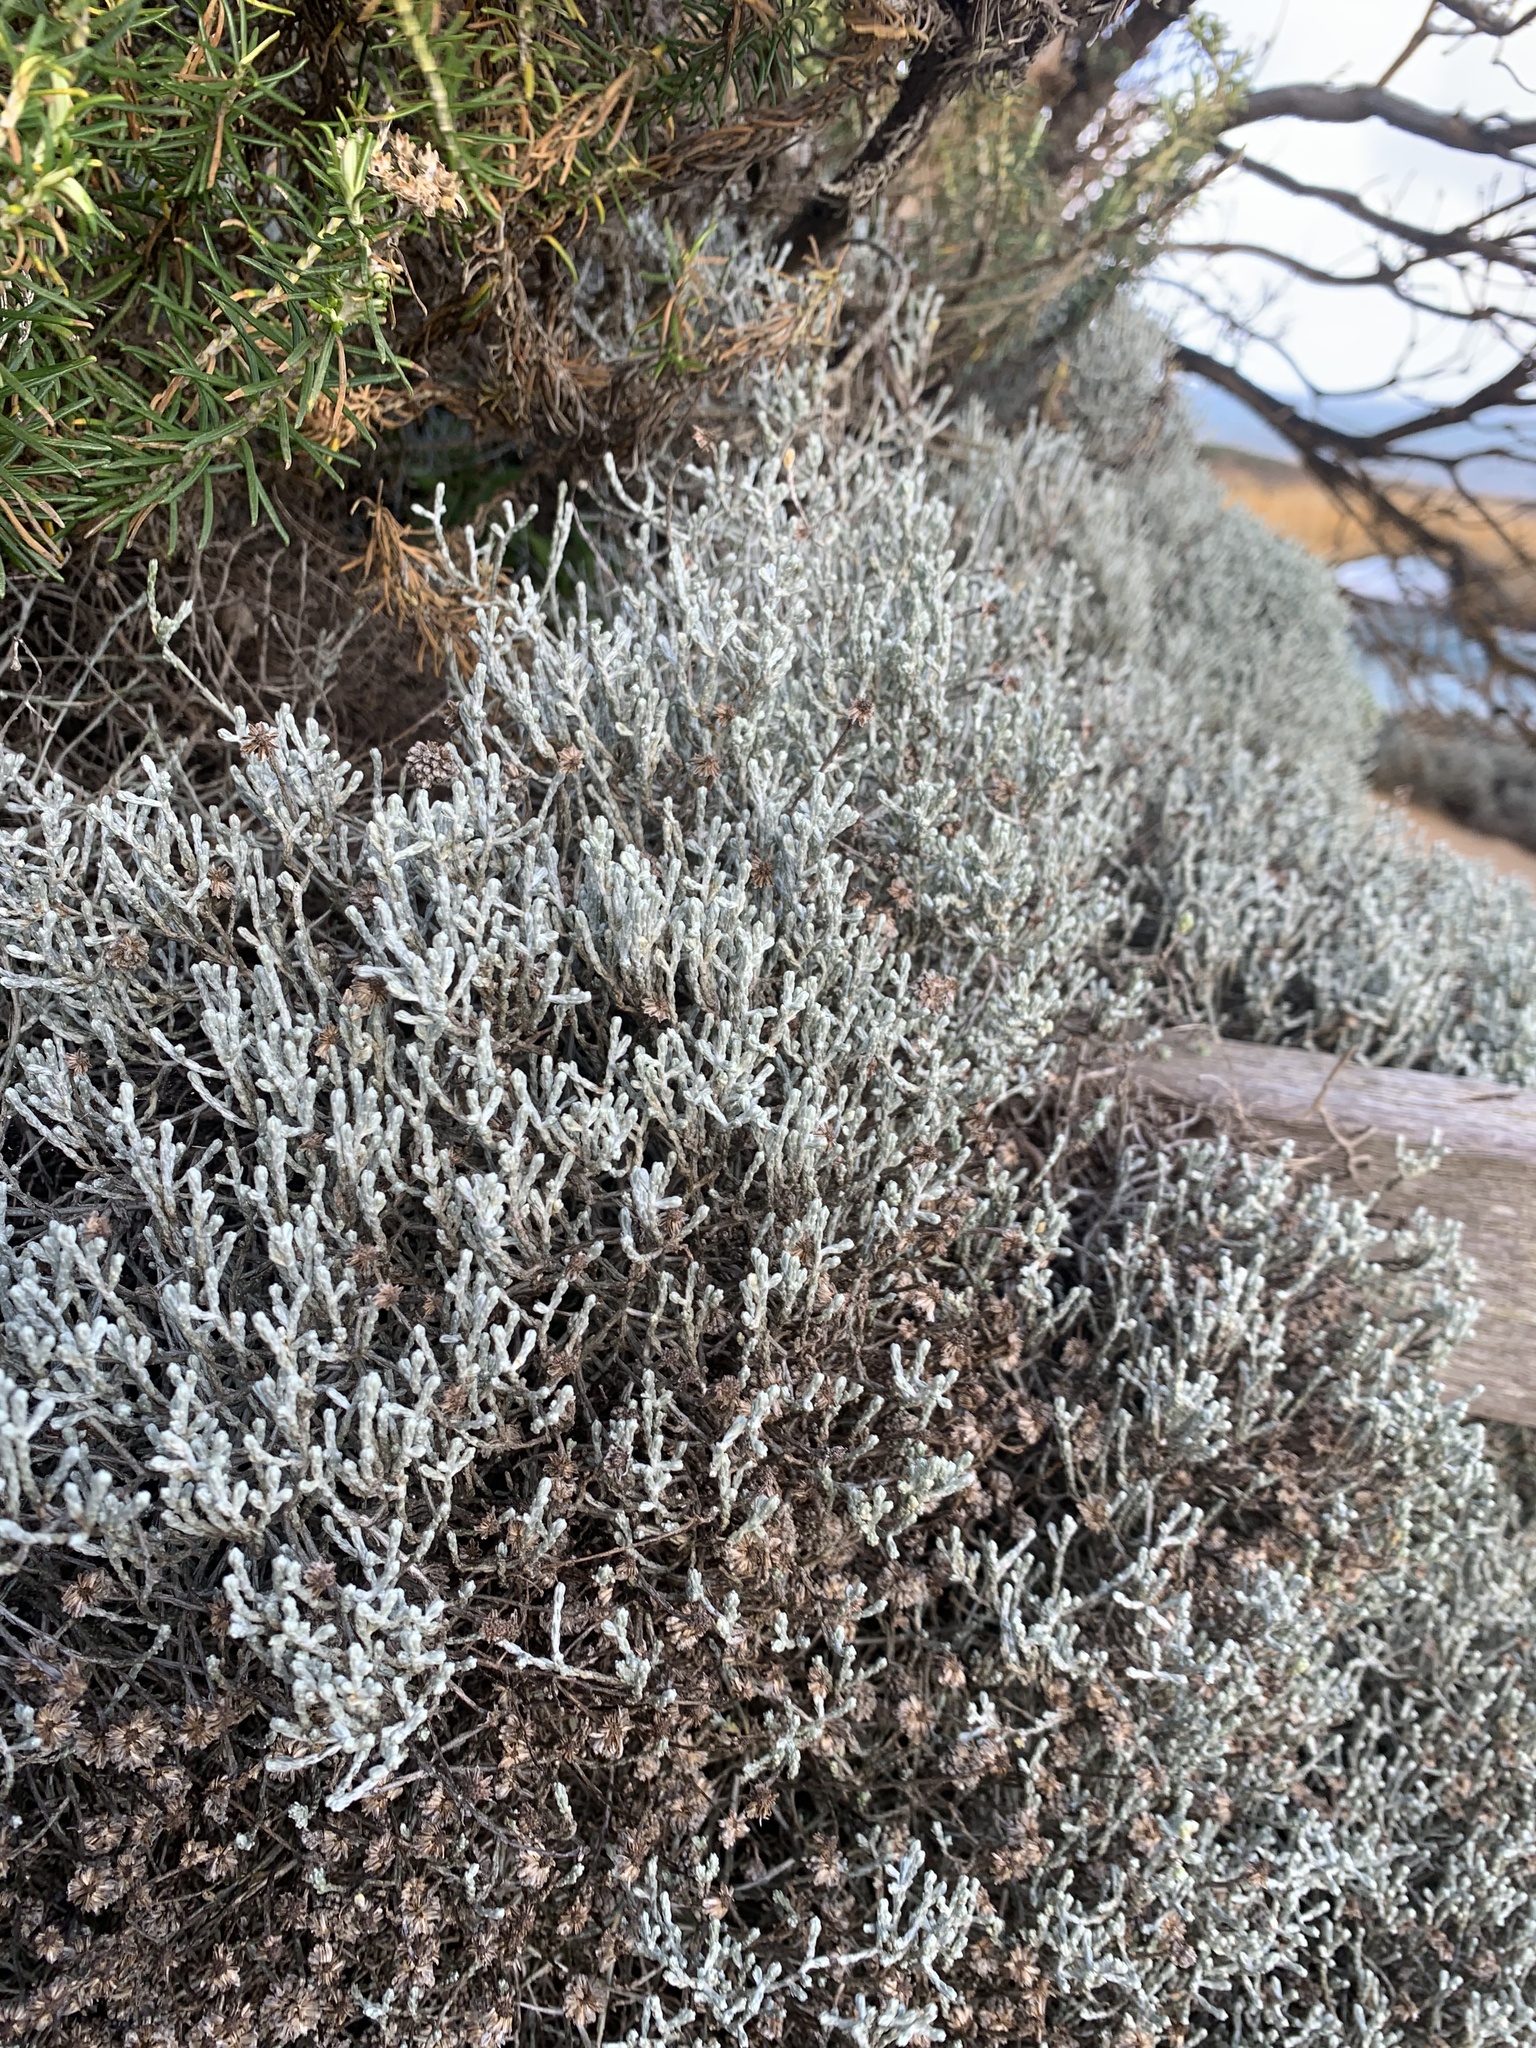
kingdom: Plantae
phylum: Tracheophyta
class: Magnoliopsida
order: Asterales
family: Asteraceae
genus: Calocephalus
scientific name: Calocephalus brownii
